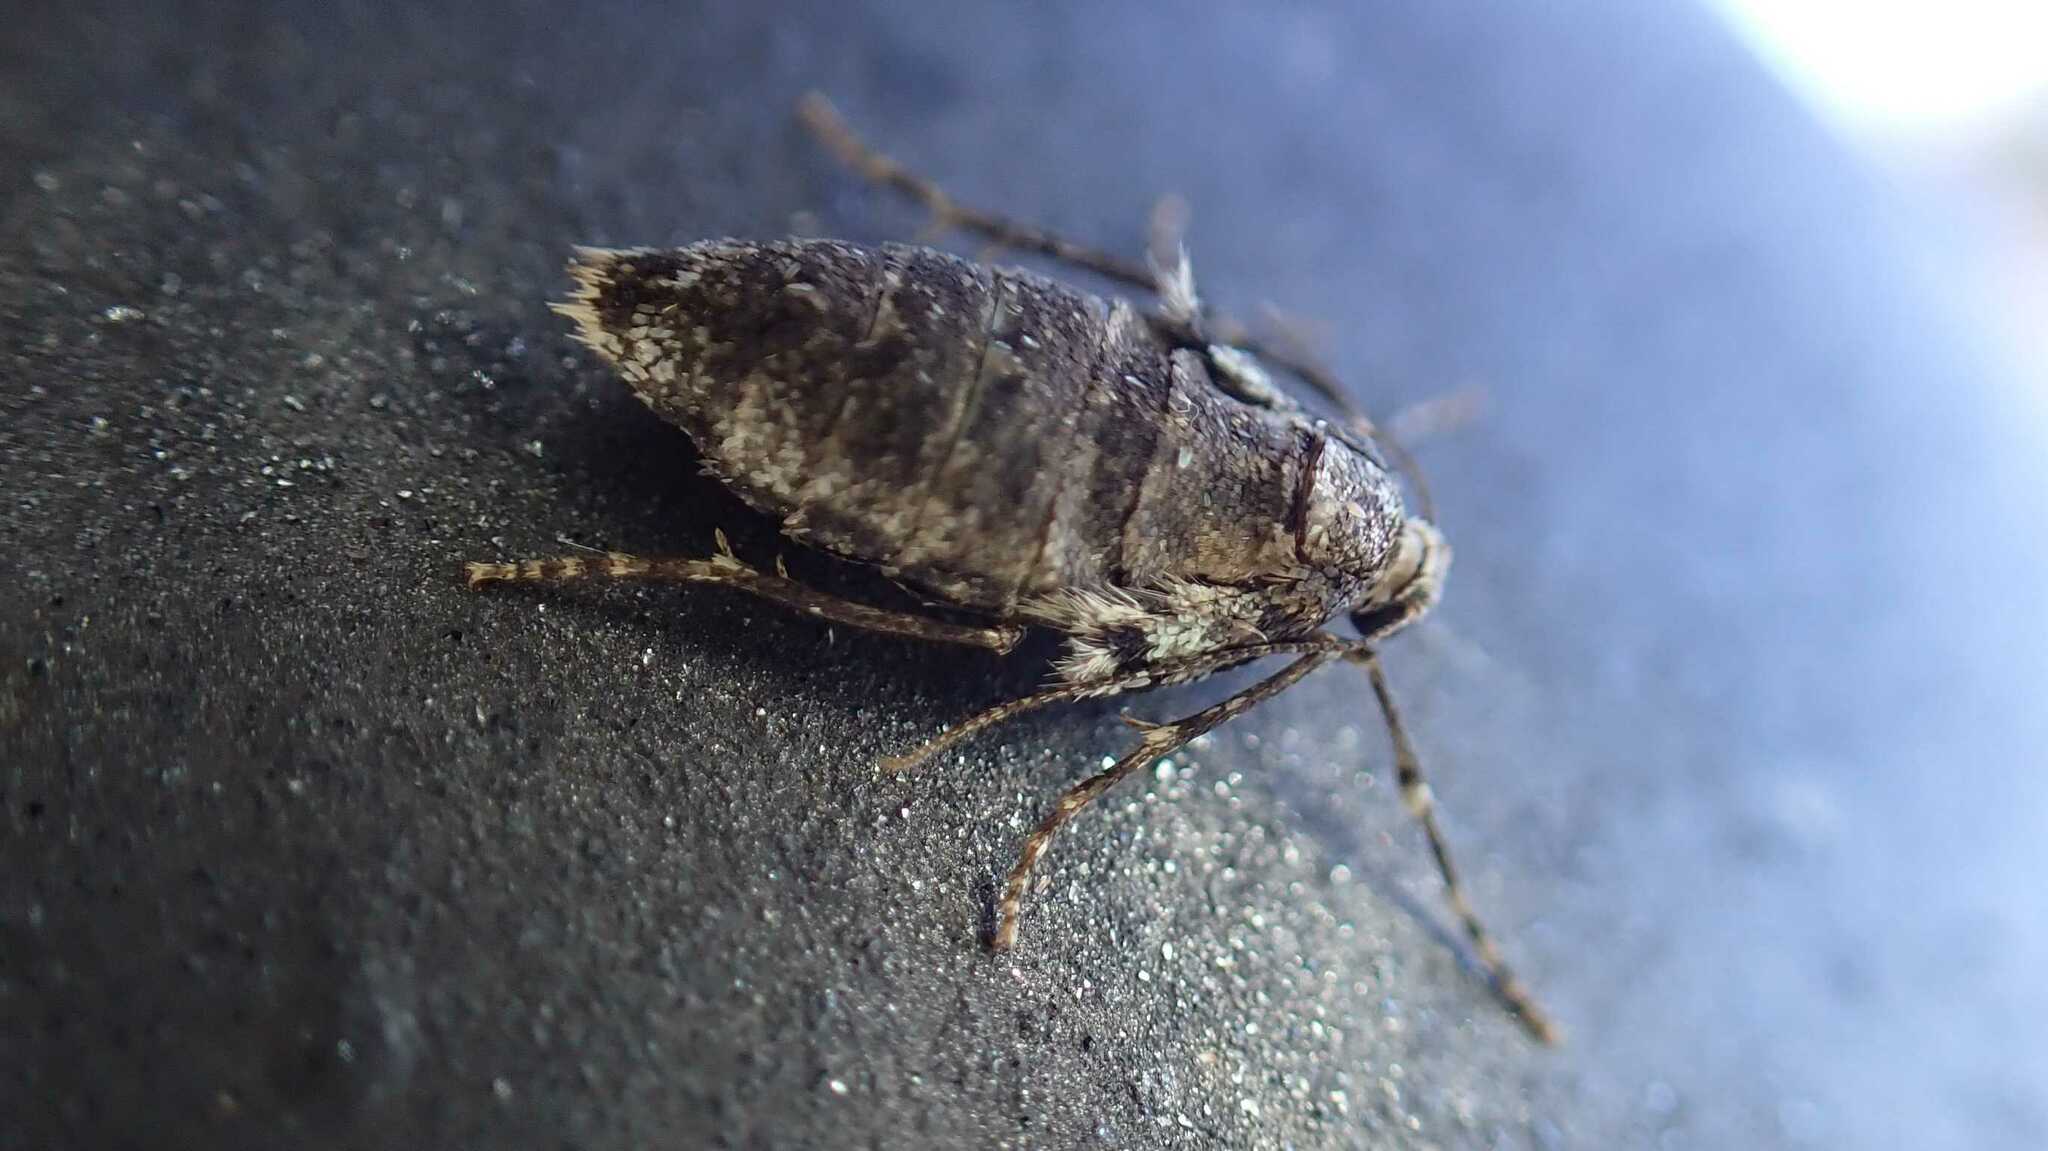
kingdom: Animalia
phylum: Arthropoda
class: Insecta
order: Lepidoptera
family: Geometridae
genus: Operophtera
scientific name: Operophtera brumata
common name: Winter moth
